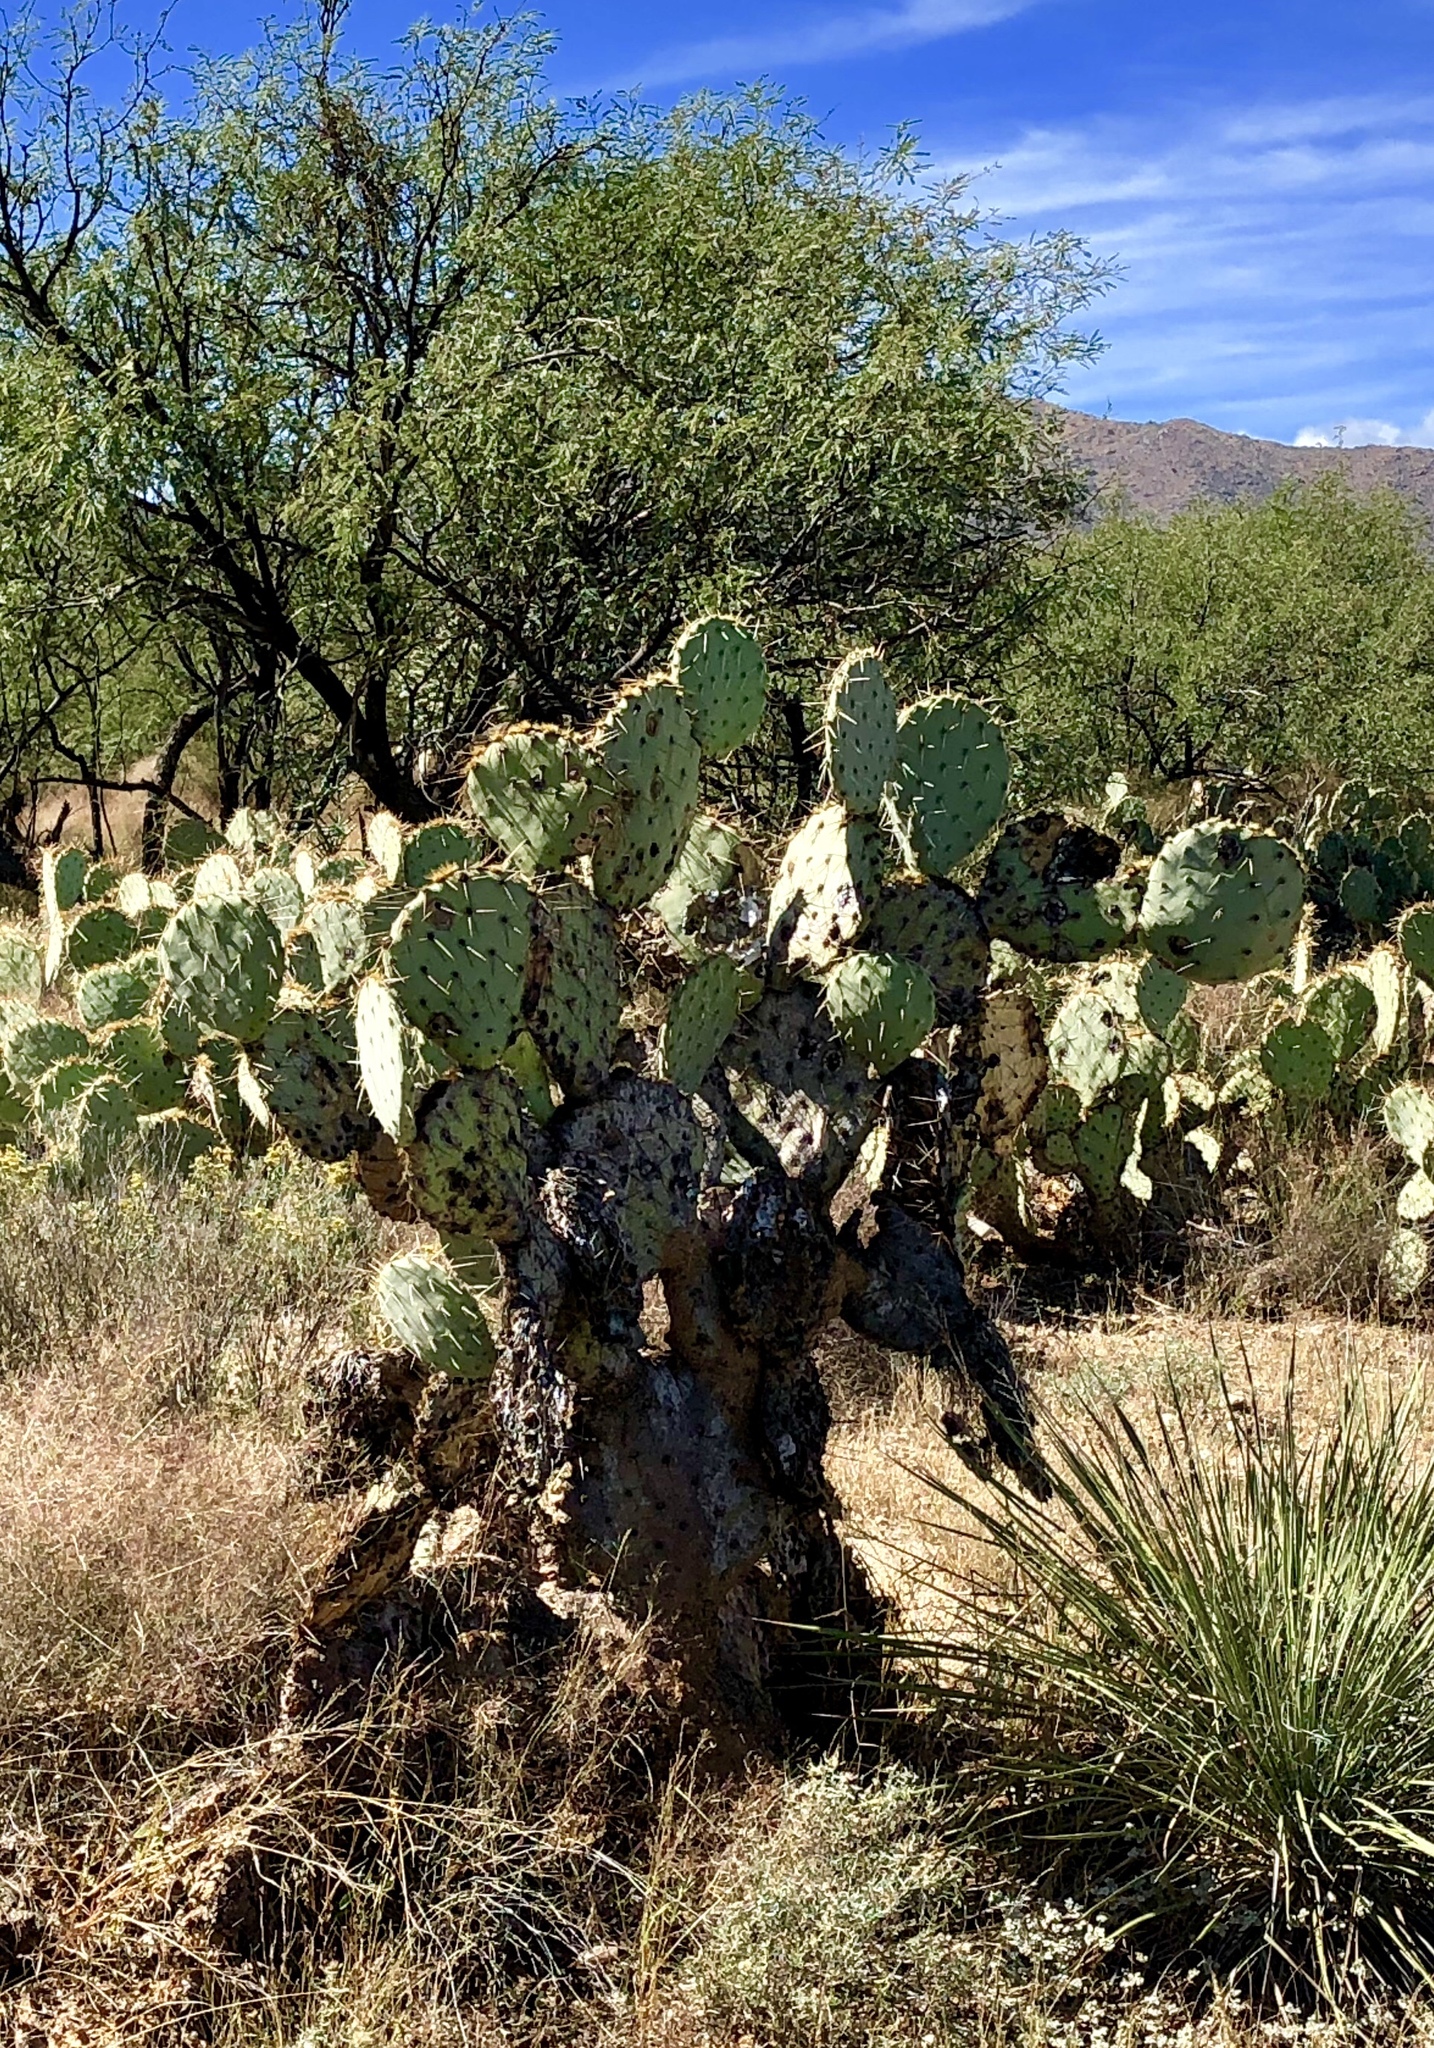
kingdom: Plantae
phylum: Tracheophyta
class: Magnoliopsida
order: Caryophyllales
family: Cactaceae
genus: Opuntia
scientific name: Opuntia engelmannii
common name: Cactus-apple
